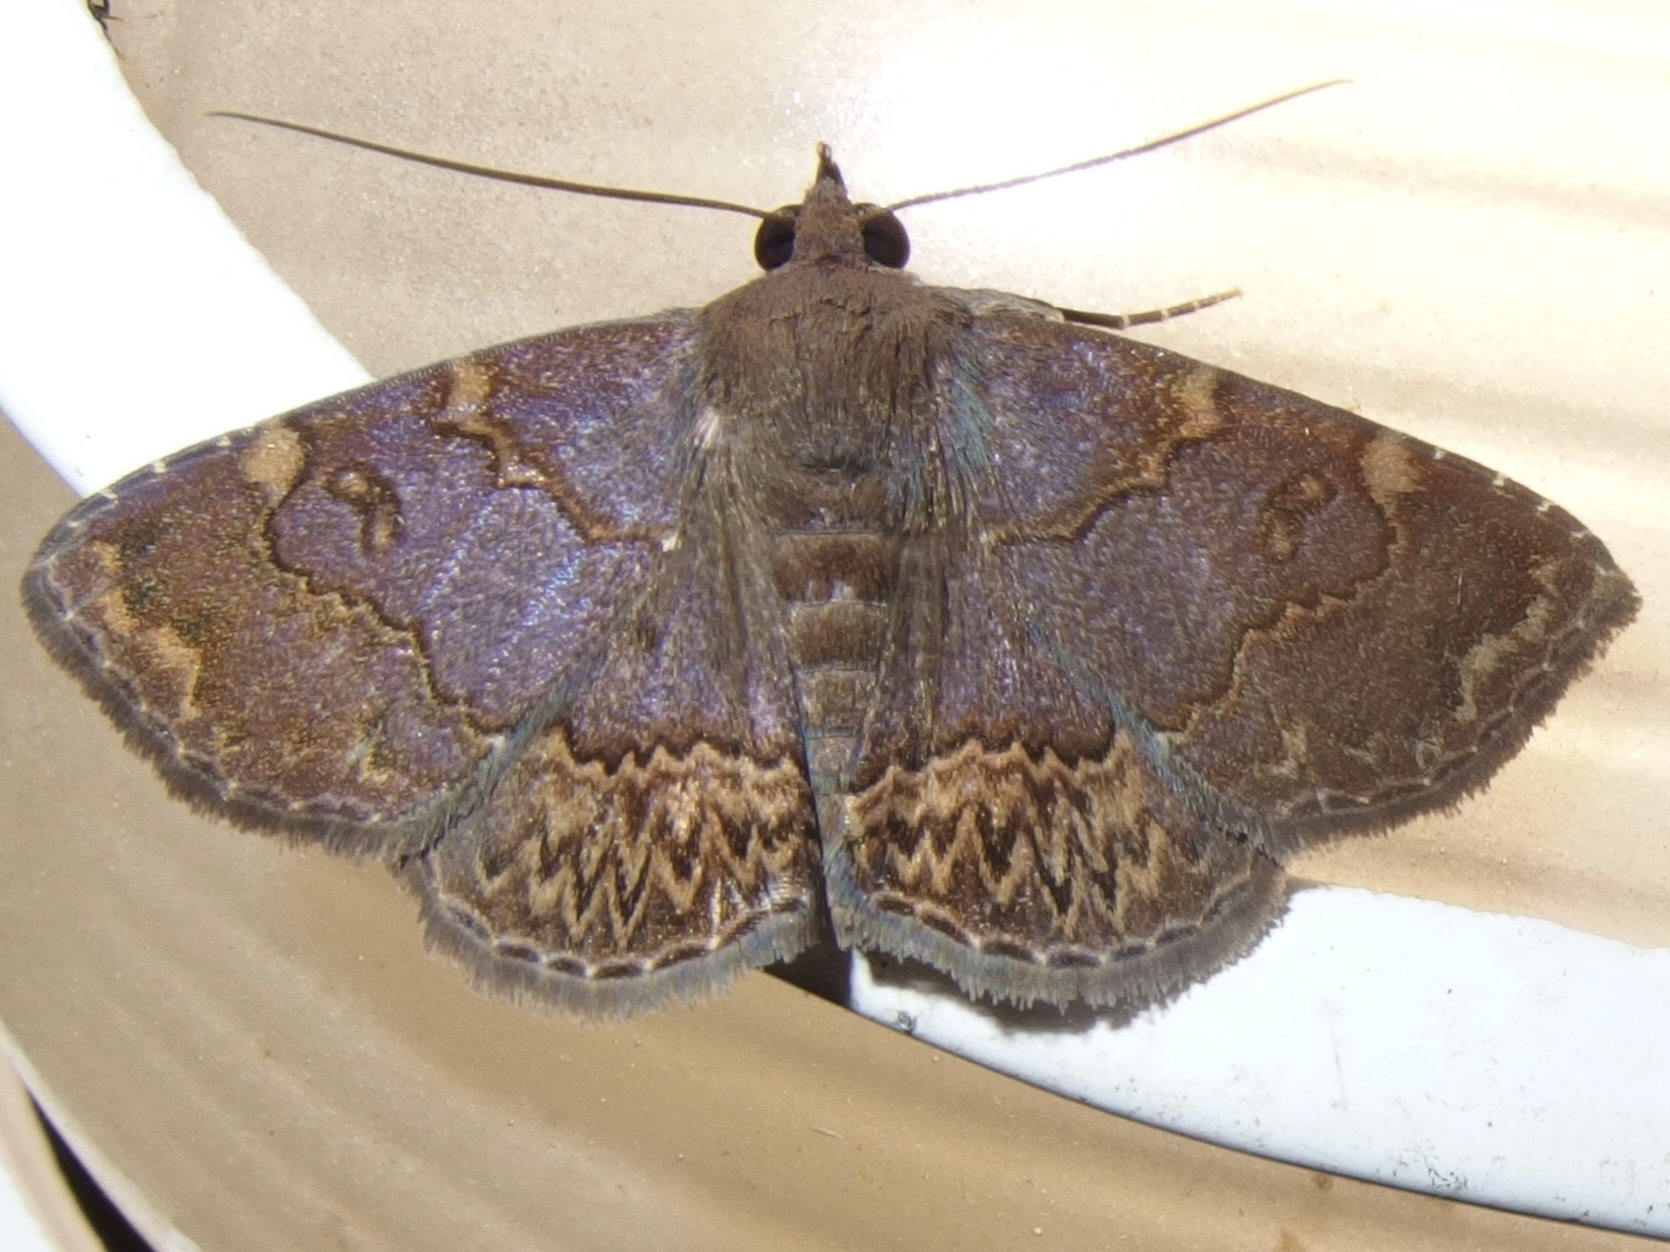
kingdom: Animalia
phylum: Arthropoda
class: Insecta
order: Lepidoptera
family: Erebidae
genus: Antiblemma
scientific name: Antiblemma abstrusa
